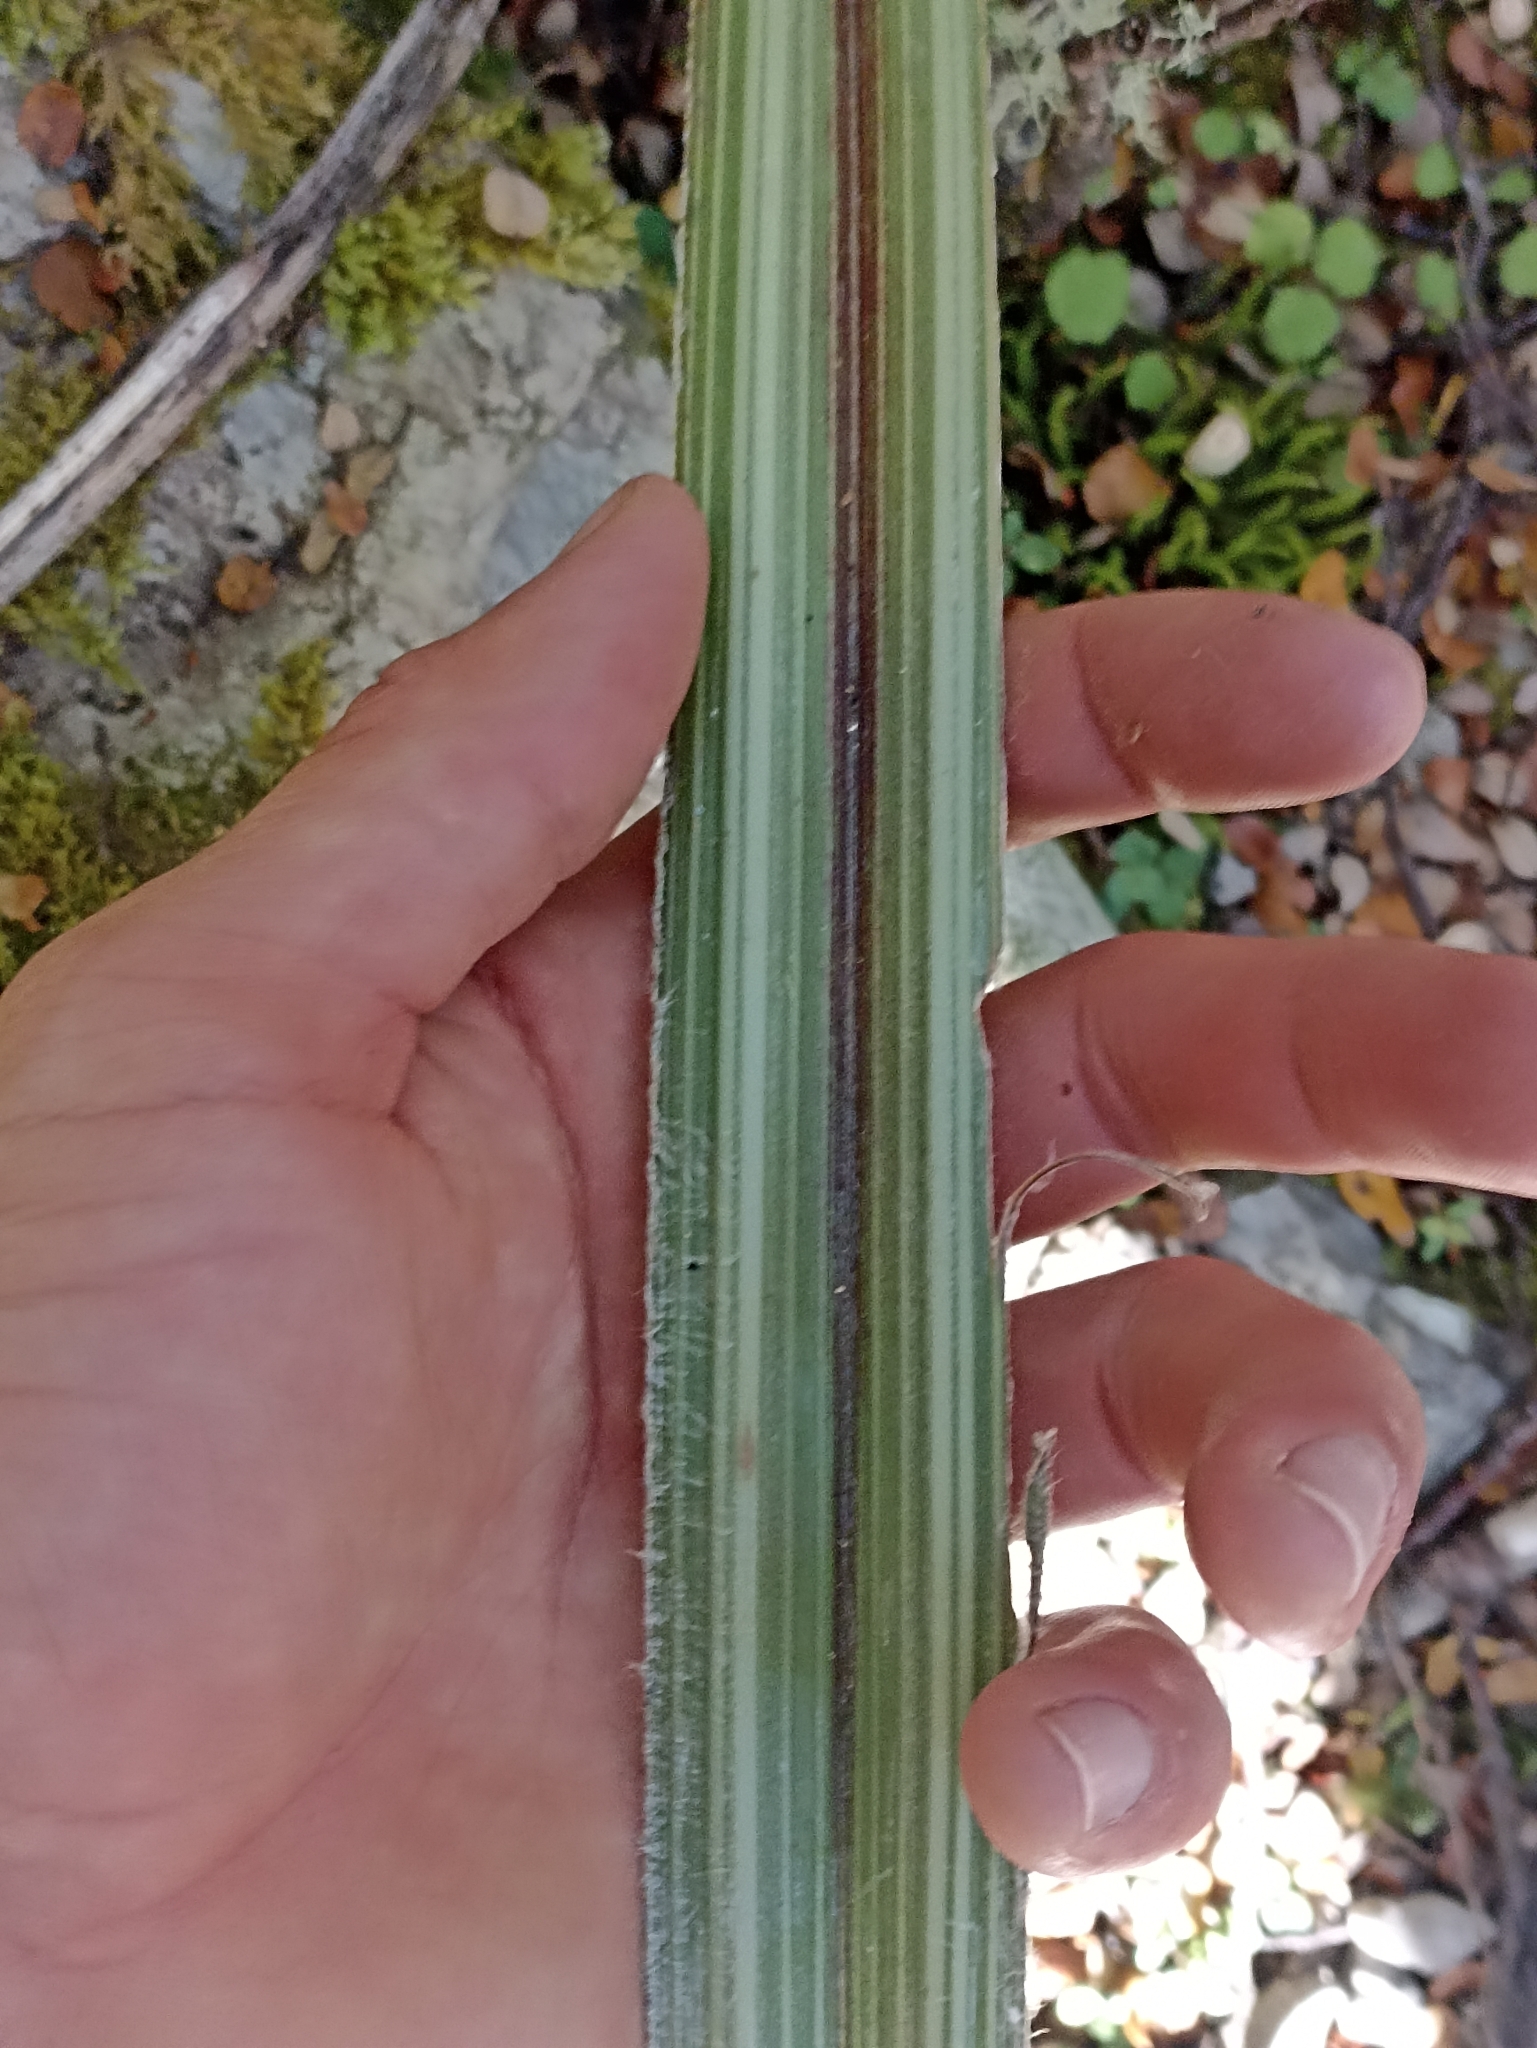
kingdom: Plantae
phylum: Tracheophyta
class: Liliopsida
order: Asparagales
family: Asteliaceae
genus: Astelia
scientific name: Astelia nervosa
